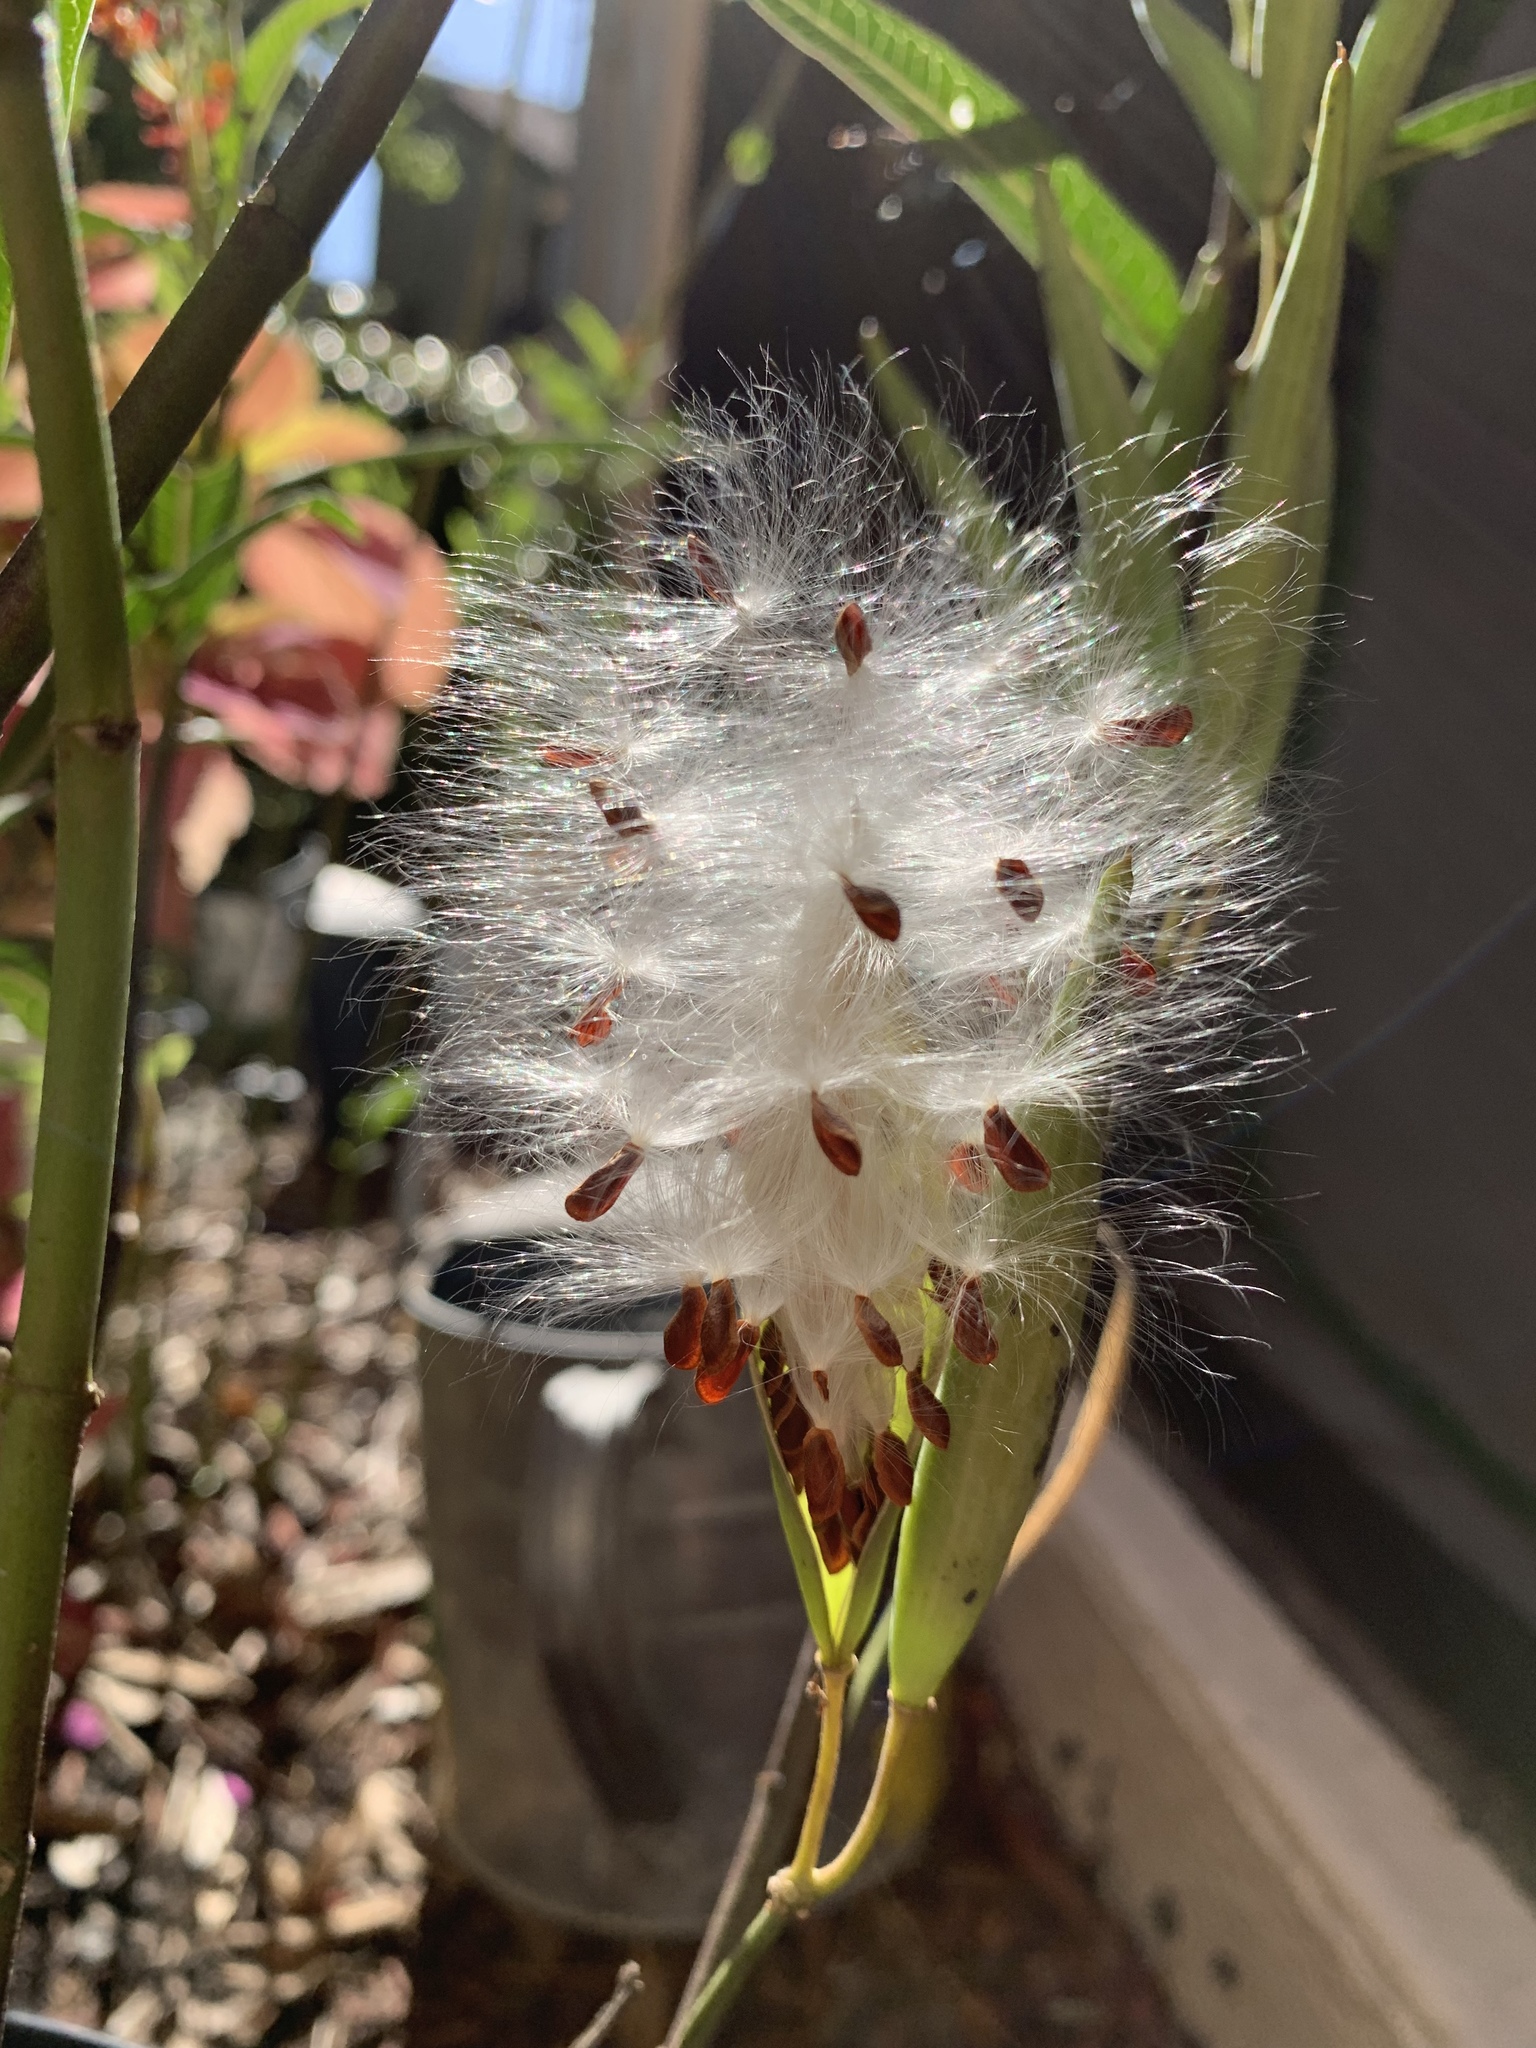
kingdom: Plantae
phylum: Tracheophyta
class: Magnoliopsida
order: Gentianales
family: Apocynaceae
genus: Asclepias
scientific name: Asclepias curassavica
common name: Bloodflower
